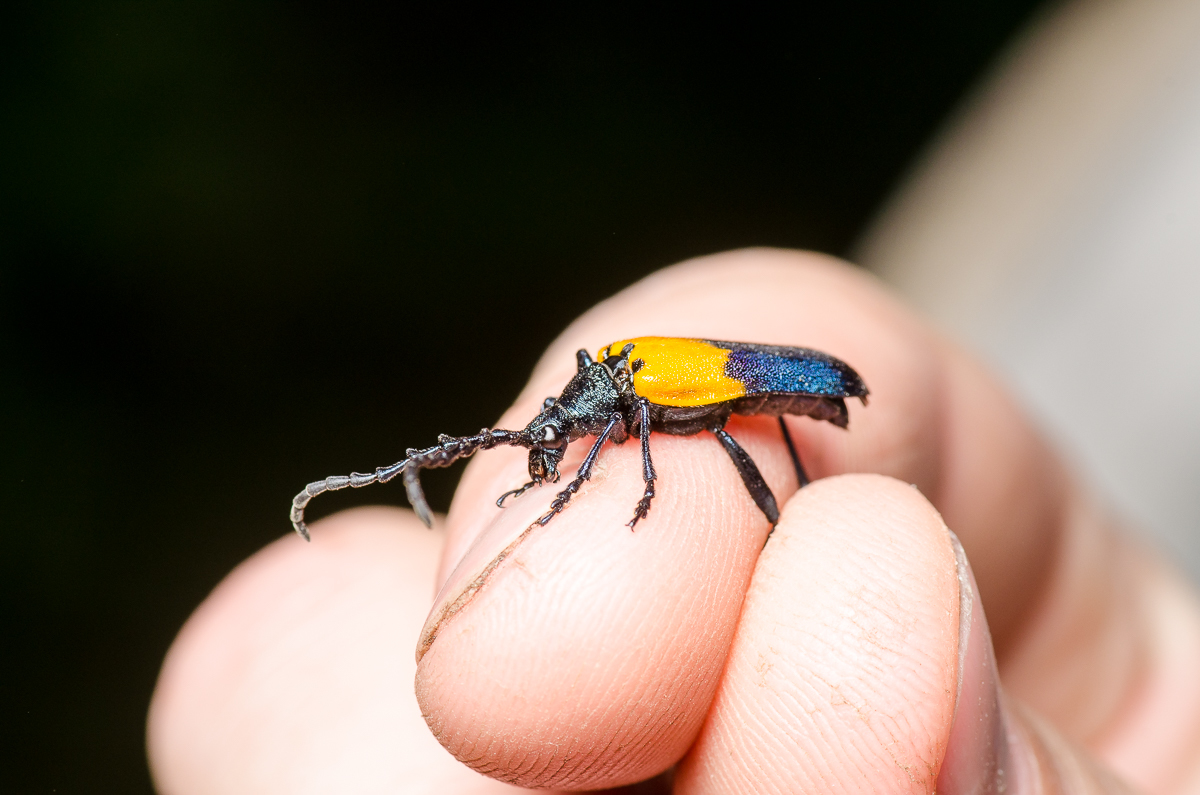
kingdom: Animalia
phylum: Arthropoda
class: Insecta
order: Coleoptera
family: Cerambycidae
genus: Desmocerus
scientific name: Desmocerus palliatus
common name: Eastern elderberry borer
